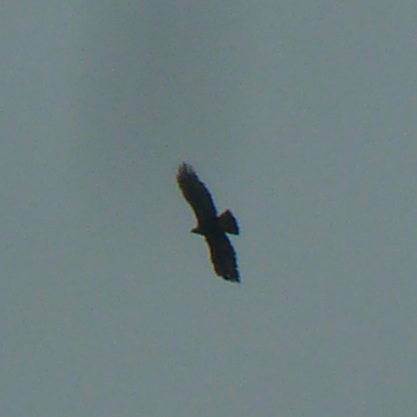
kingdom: Animalia
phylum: Chordata
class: Aves
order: Accipitriformes
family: Accipitridae
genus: Aquila
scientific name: Aquila chrysaetos
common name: Golden eagle
